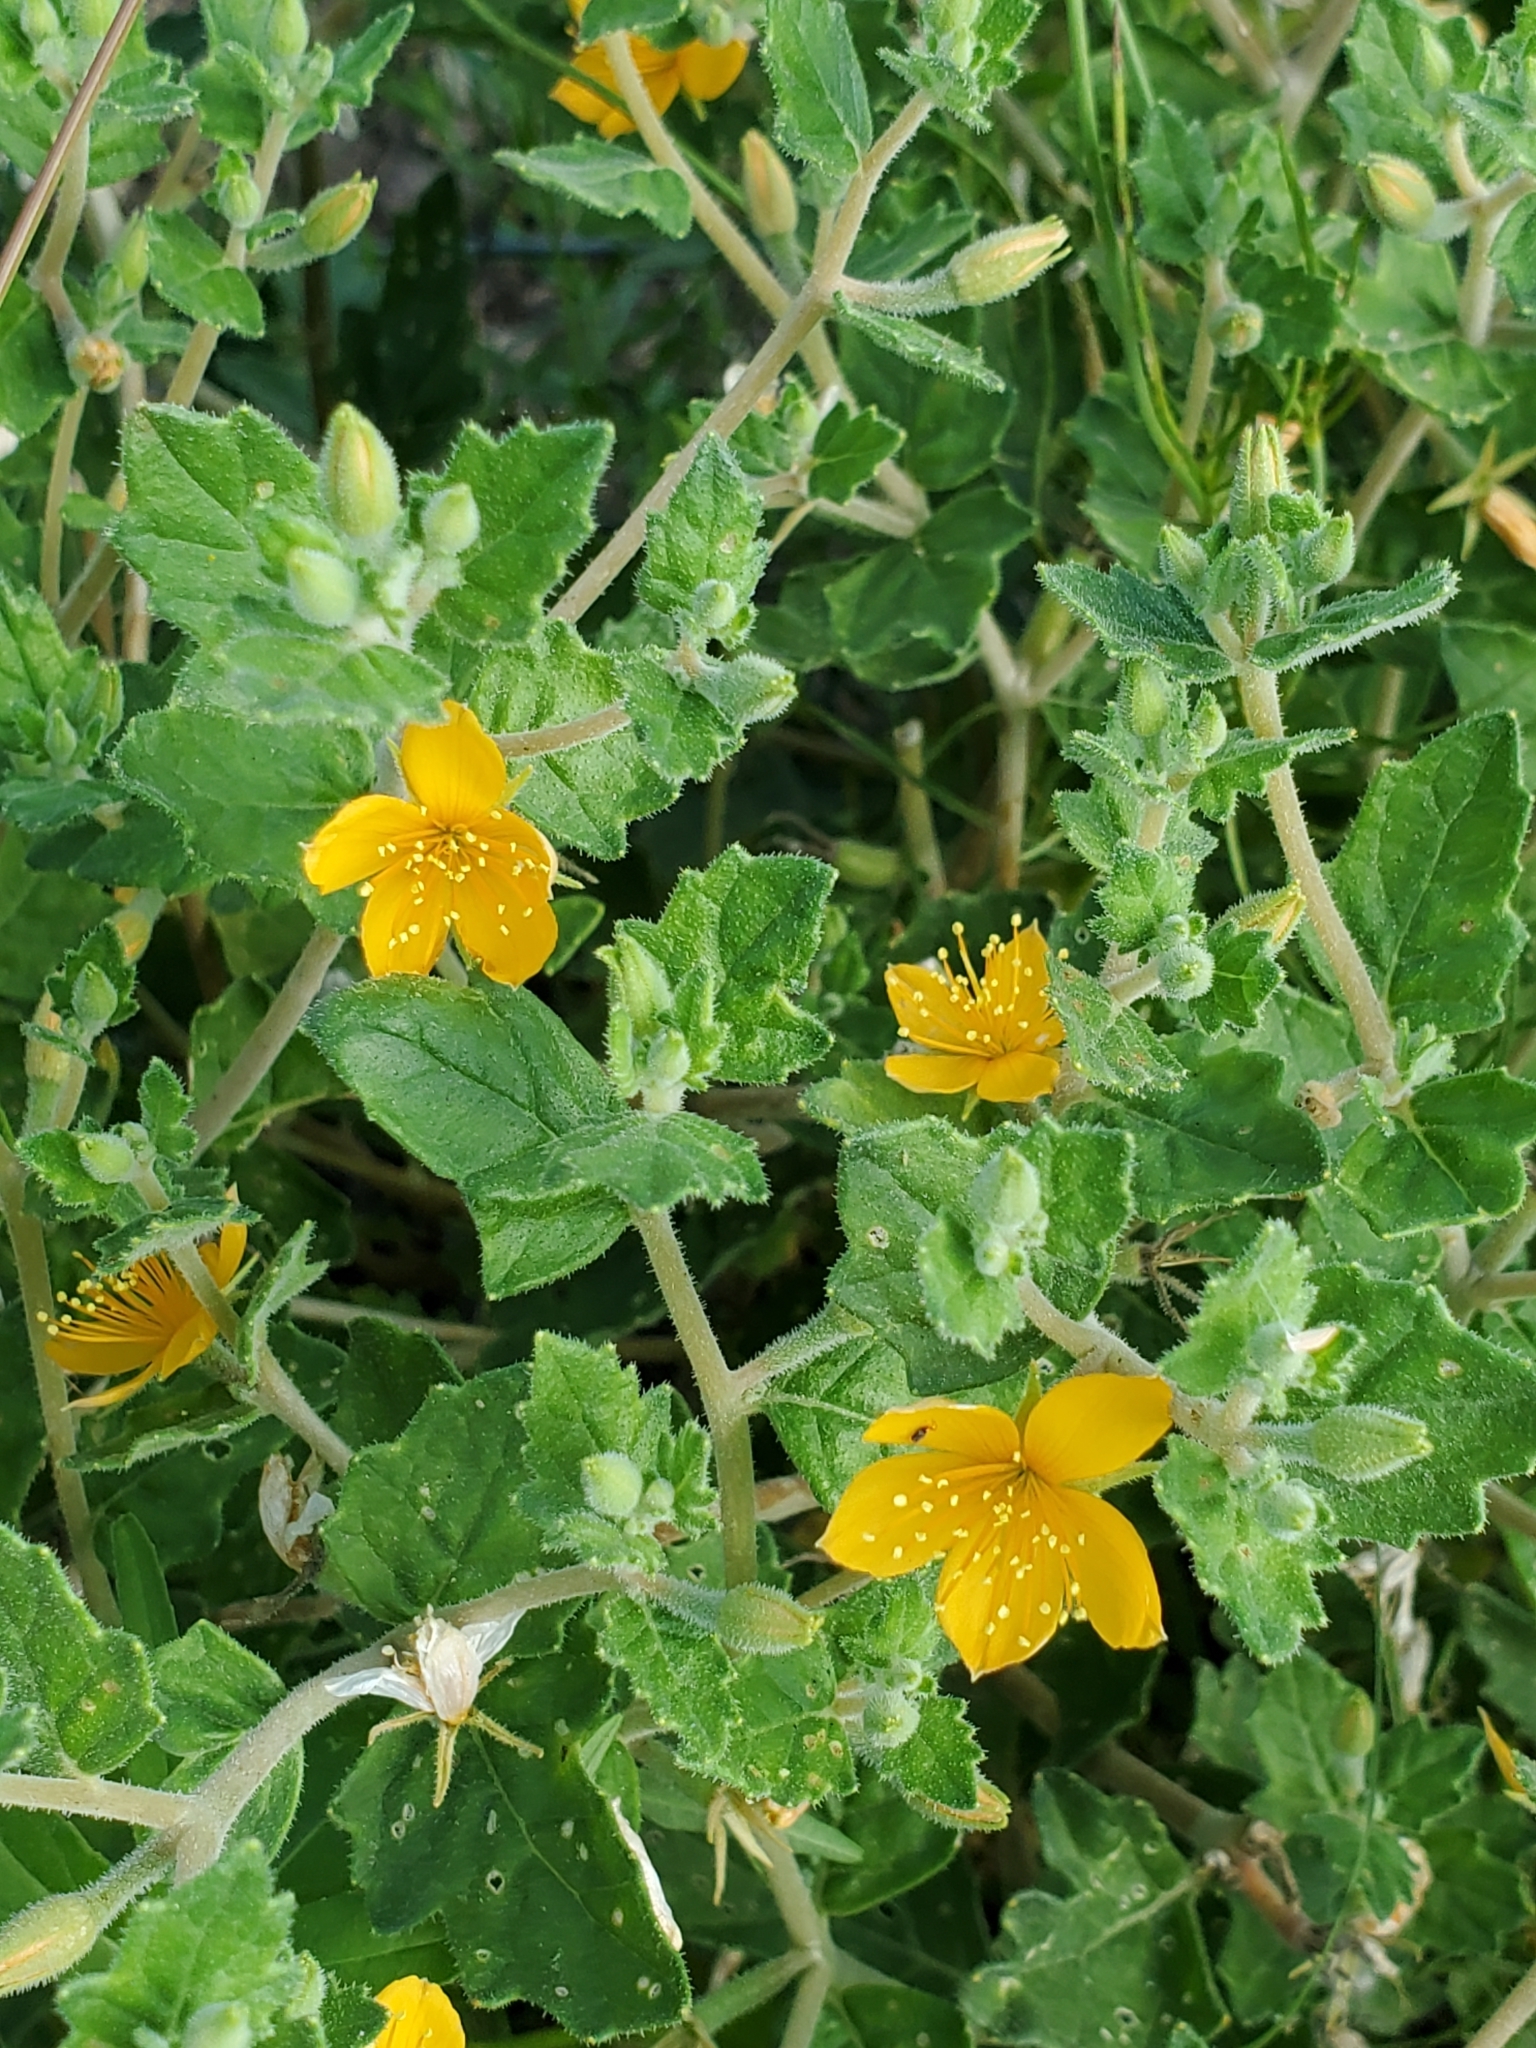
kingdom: Plantae
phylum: Tracheophyta
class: Magnoliopsida
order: Cornales
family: Loasaceae
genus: Mentzelia
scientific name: Mentzelia oligosperma
